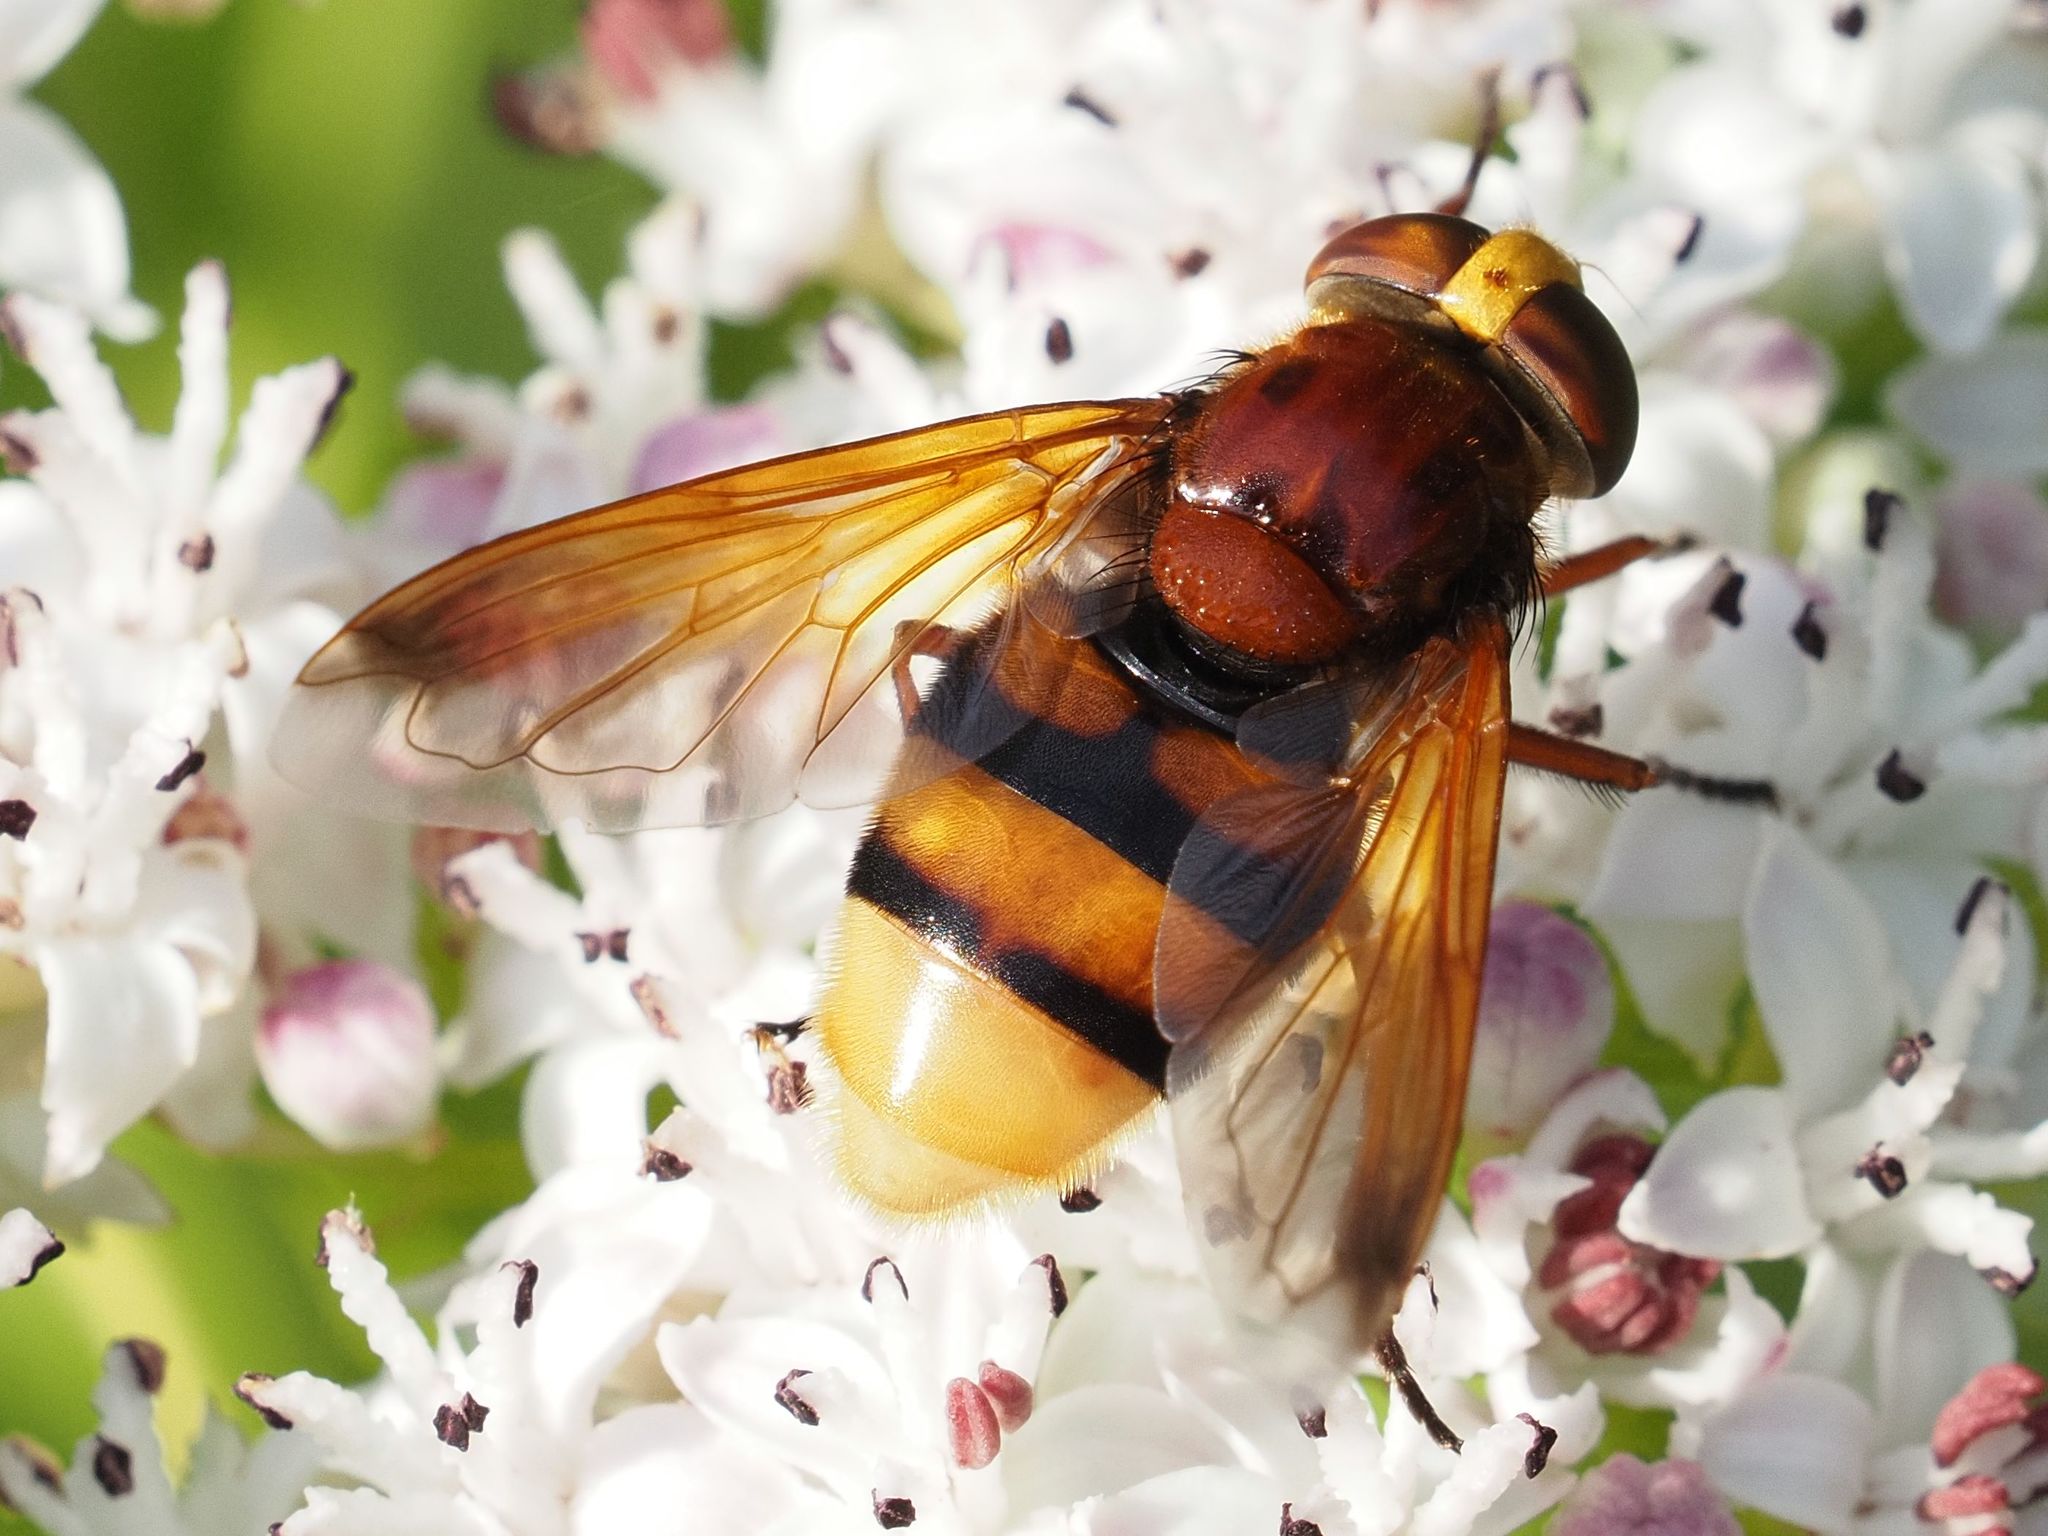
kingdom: Animalia
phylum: Arthropoda
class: Insecta
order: Diptera
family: Syrphidae
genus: Volucella
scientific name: Volucella zonaria
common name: Hornet hoverfly
